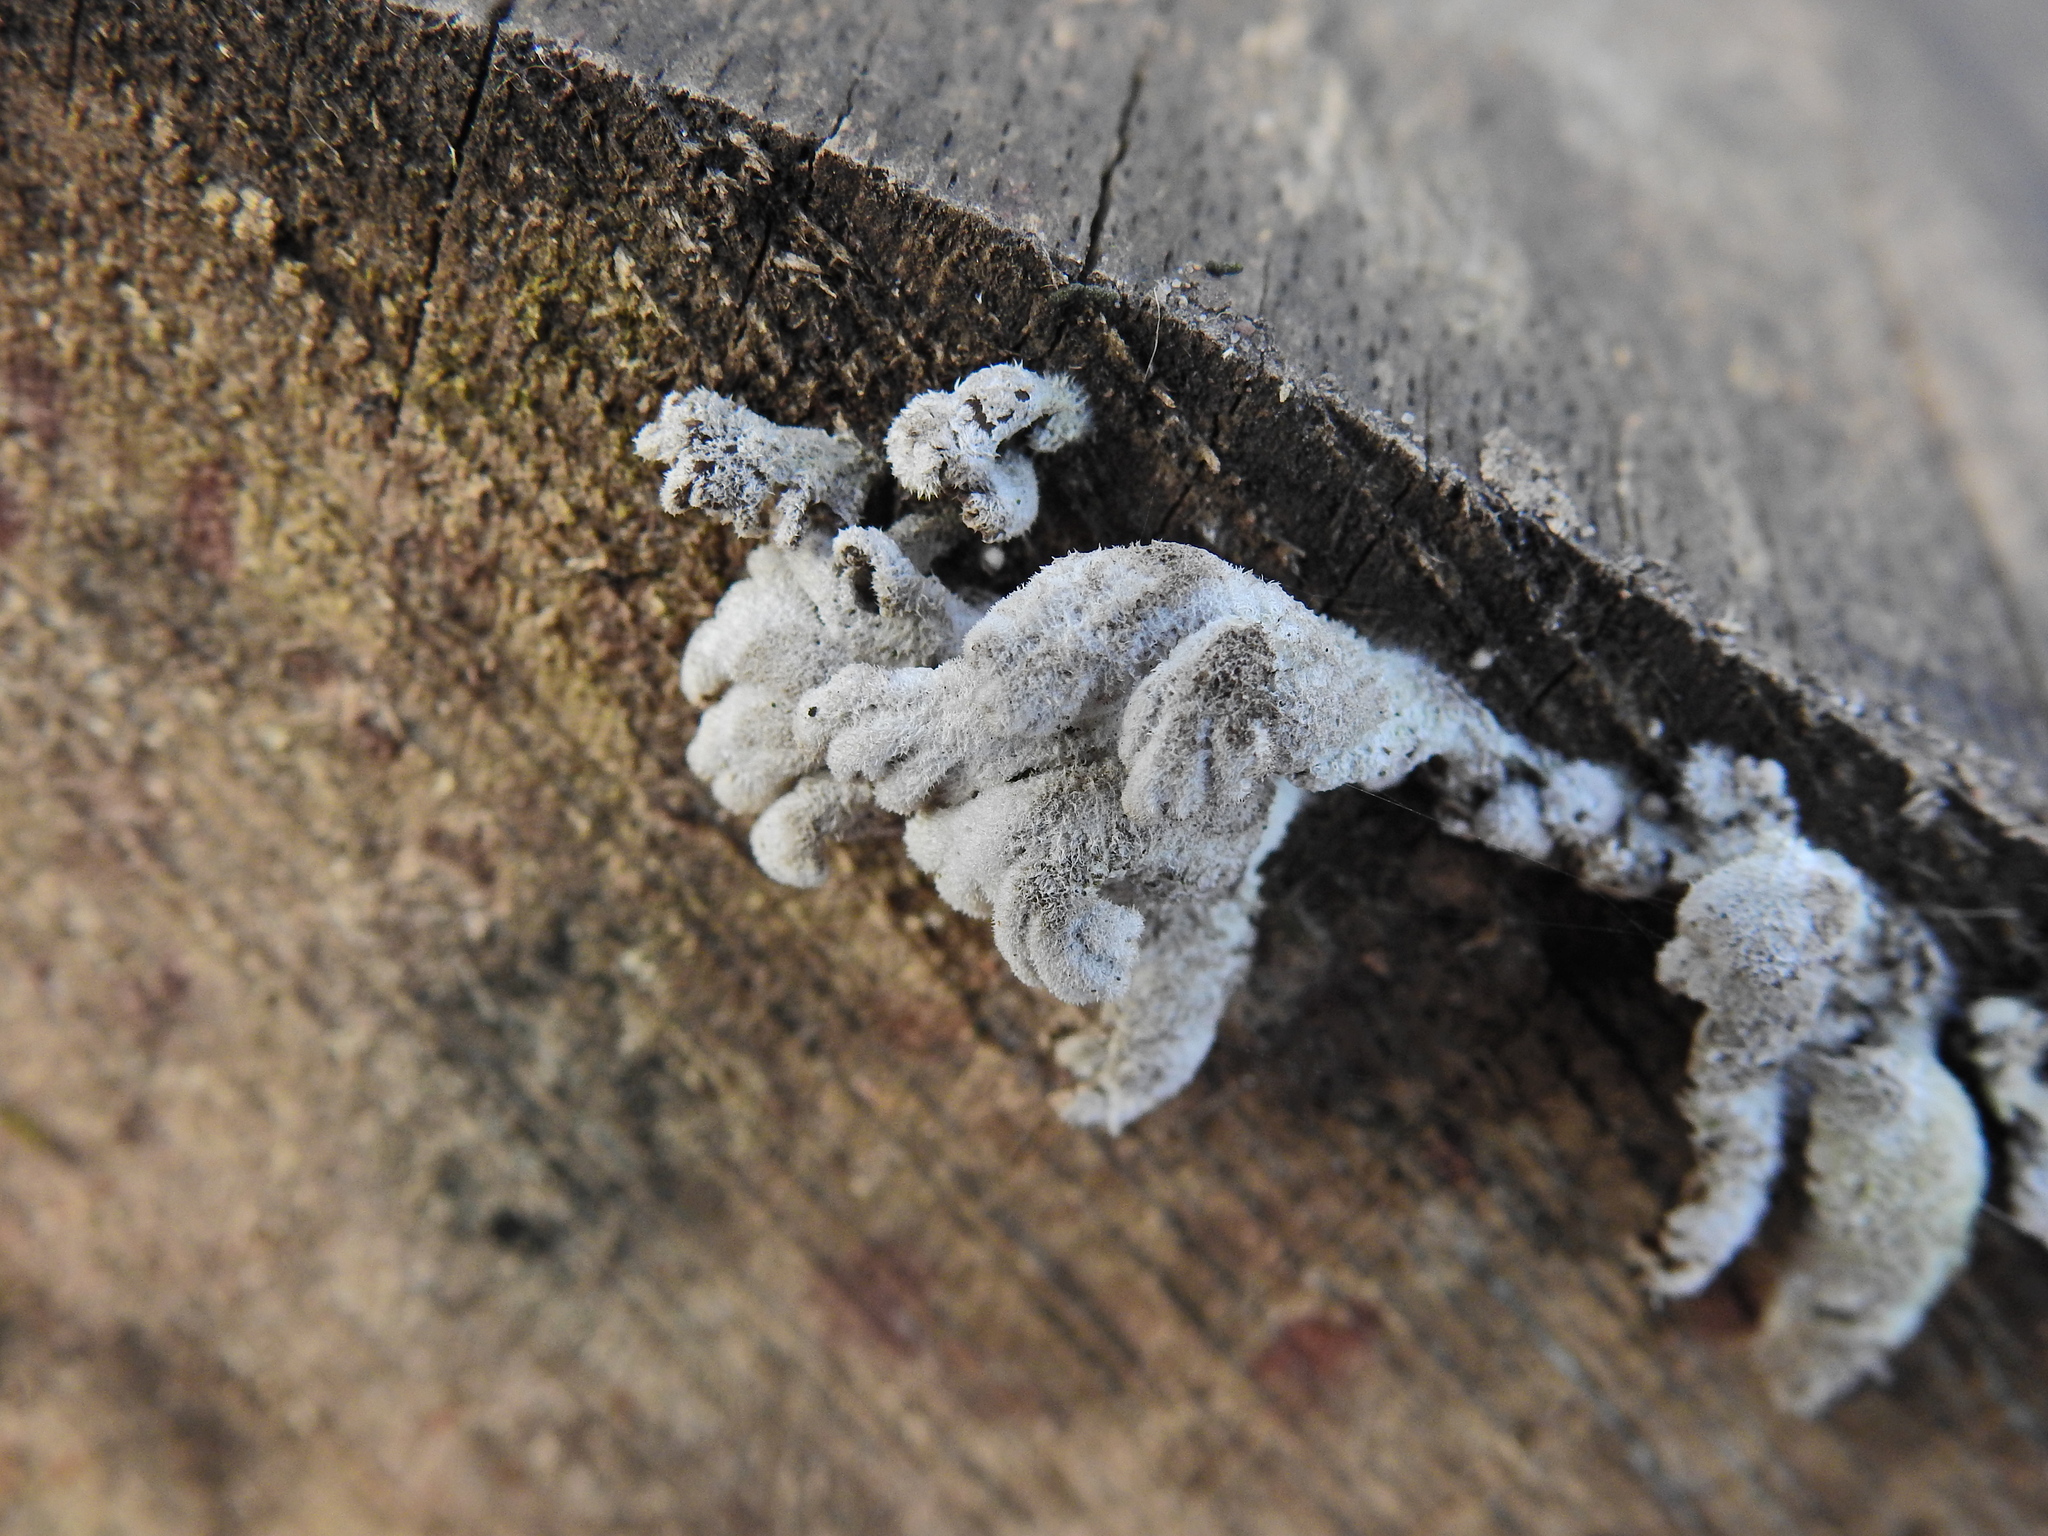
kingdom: Fungi
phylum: Basidiomycota
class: Agaricomycetes
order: Agaricales
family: Schizophyllaceae
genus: Schizophyllum
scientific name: Schizophyllum commune
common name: Common porecrust
